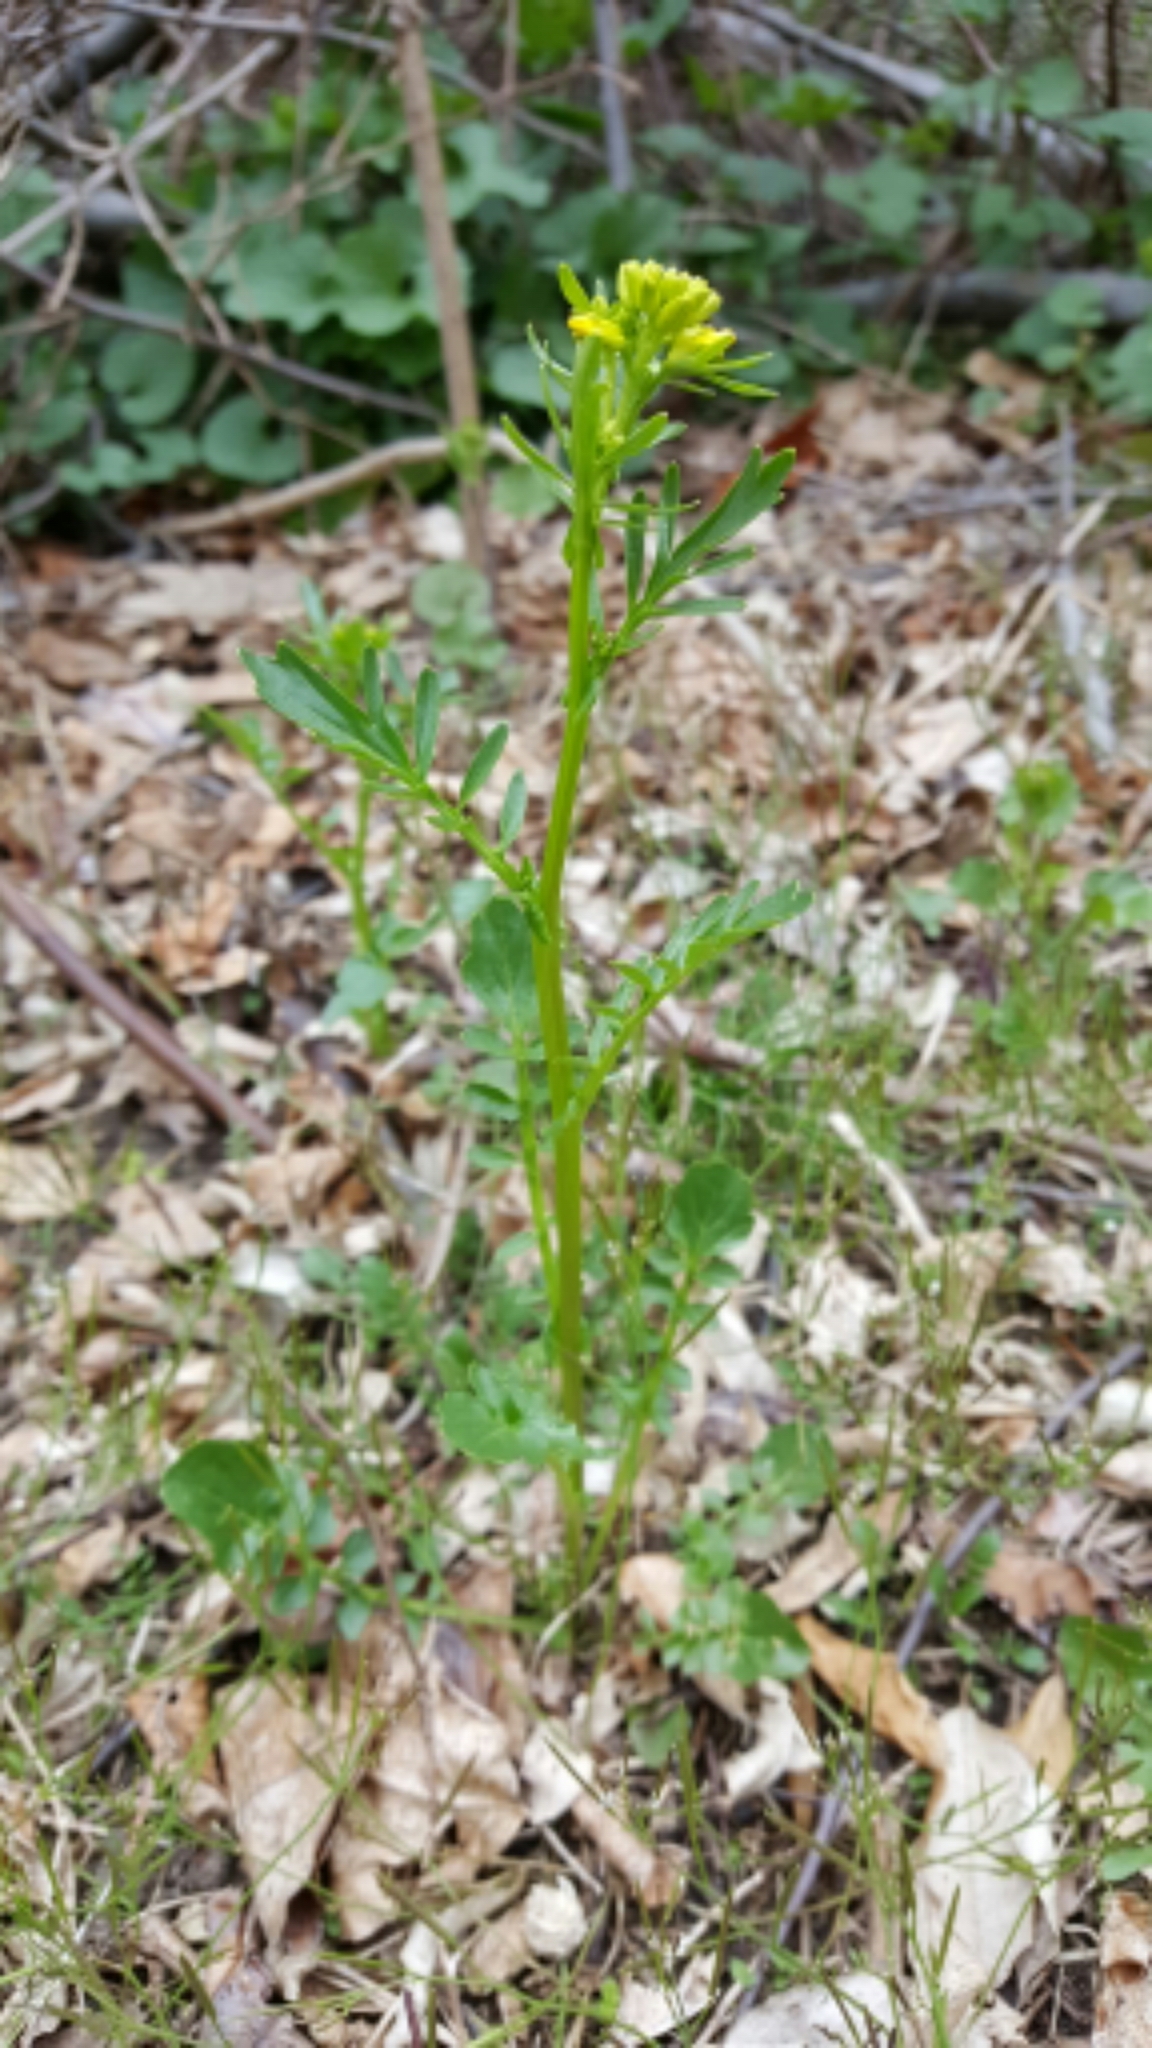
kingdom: Plantae
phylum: Tracheophyta
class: Magnoliopsida
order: Brassicales
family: Brassicaceae
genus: Barbarea
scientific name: Barbarea vulgaris
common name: Cressy-greens
